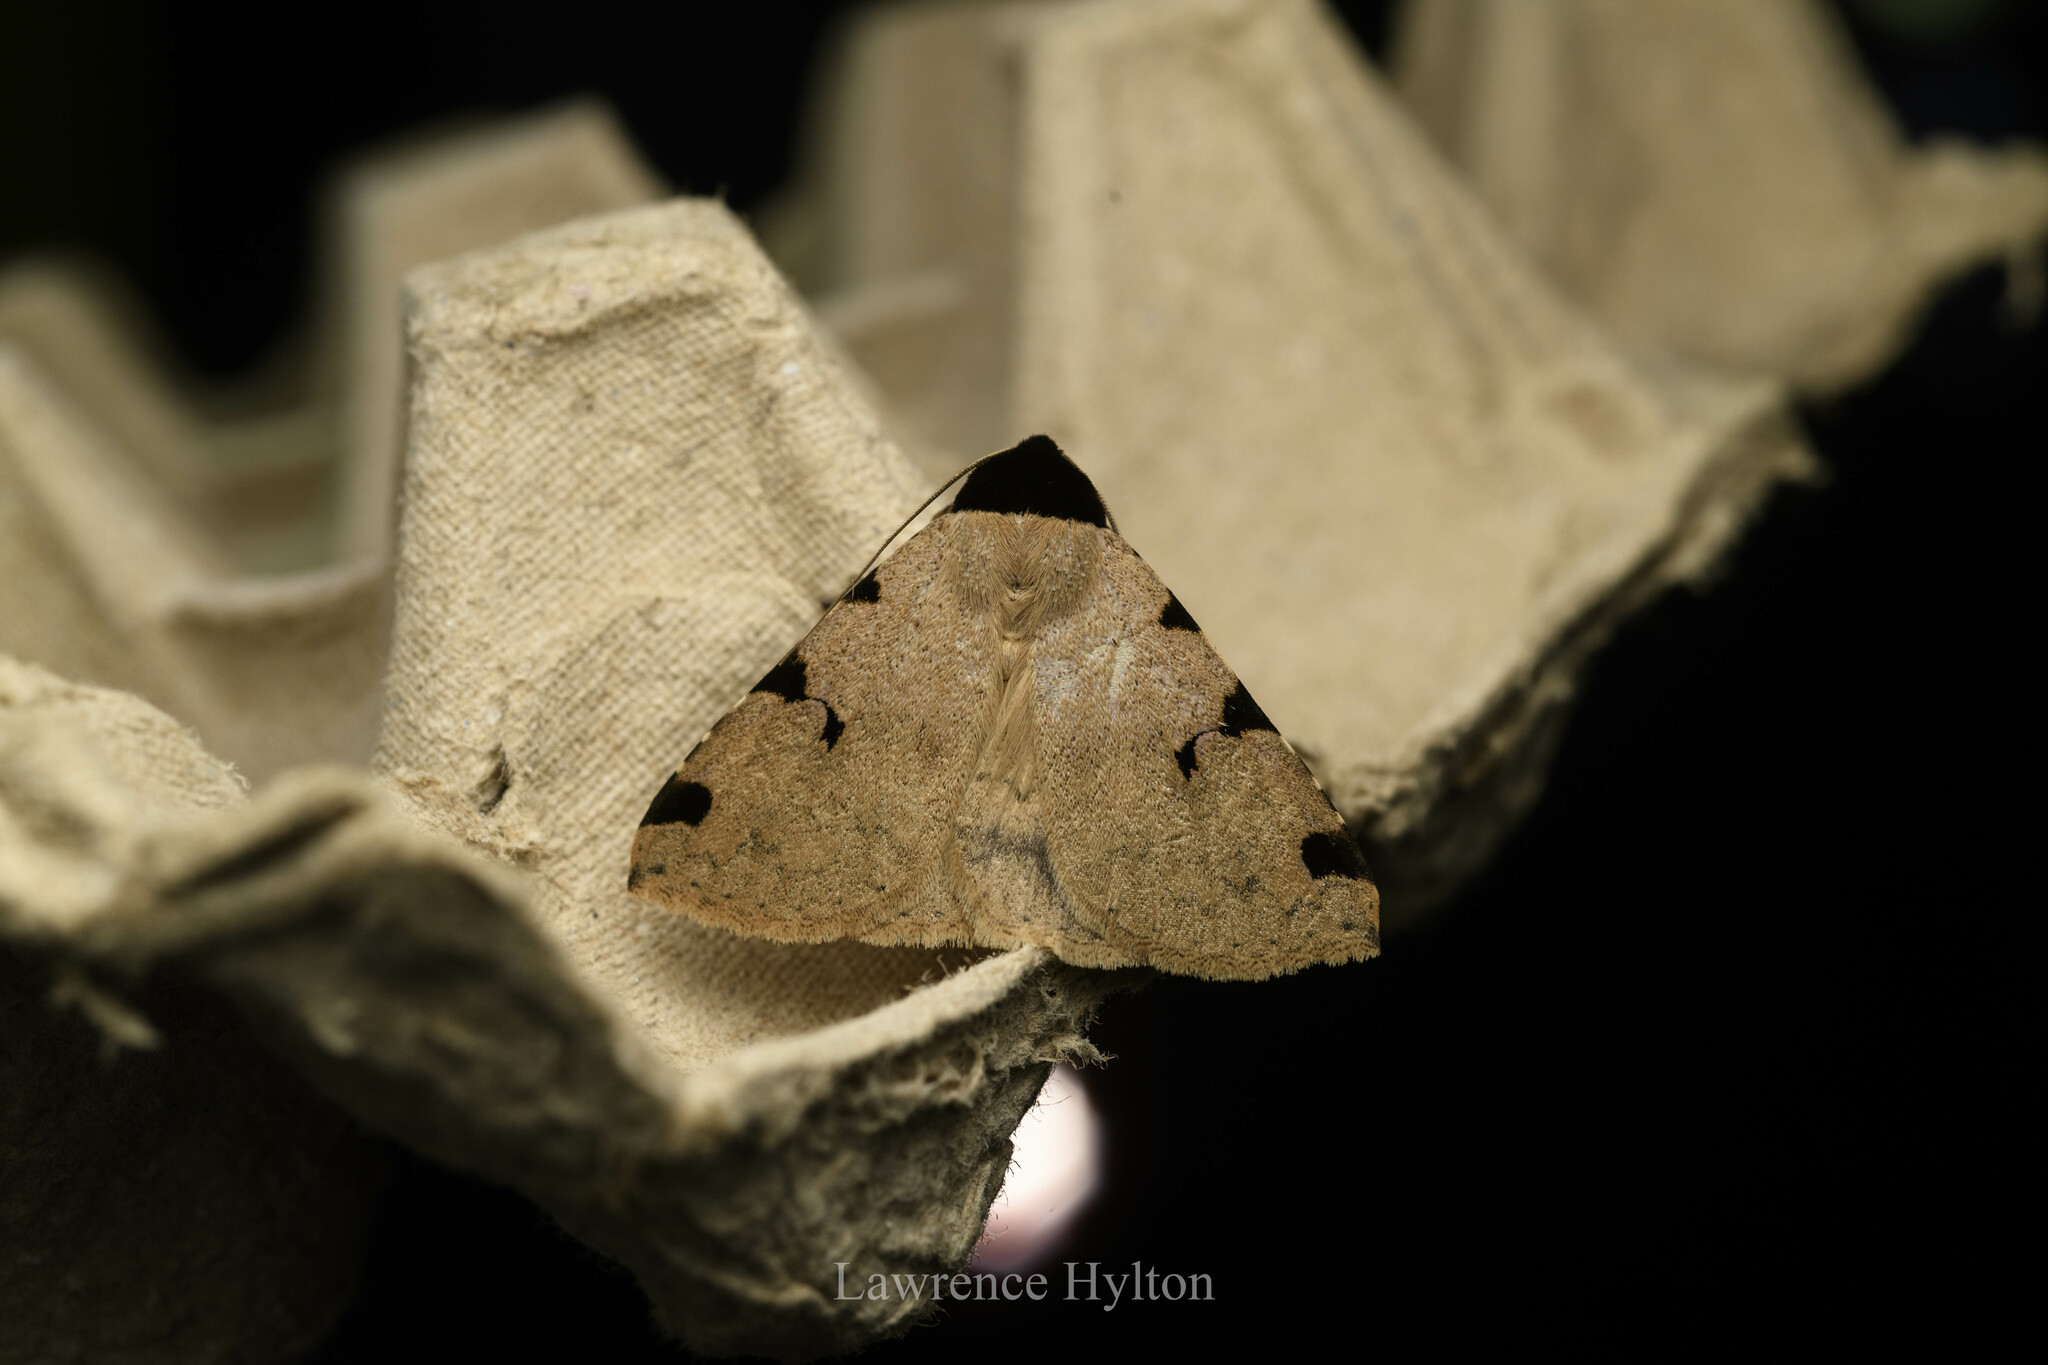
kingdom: Animalia
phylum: Arthropoda
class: Insecta
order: Lepidoptera
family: Erebidae
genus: Rema
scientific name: Rema costimacula
